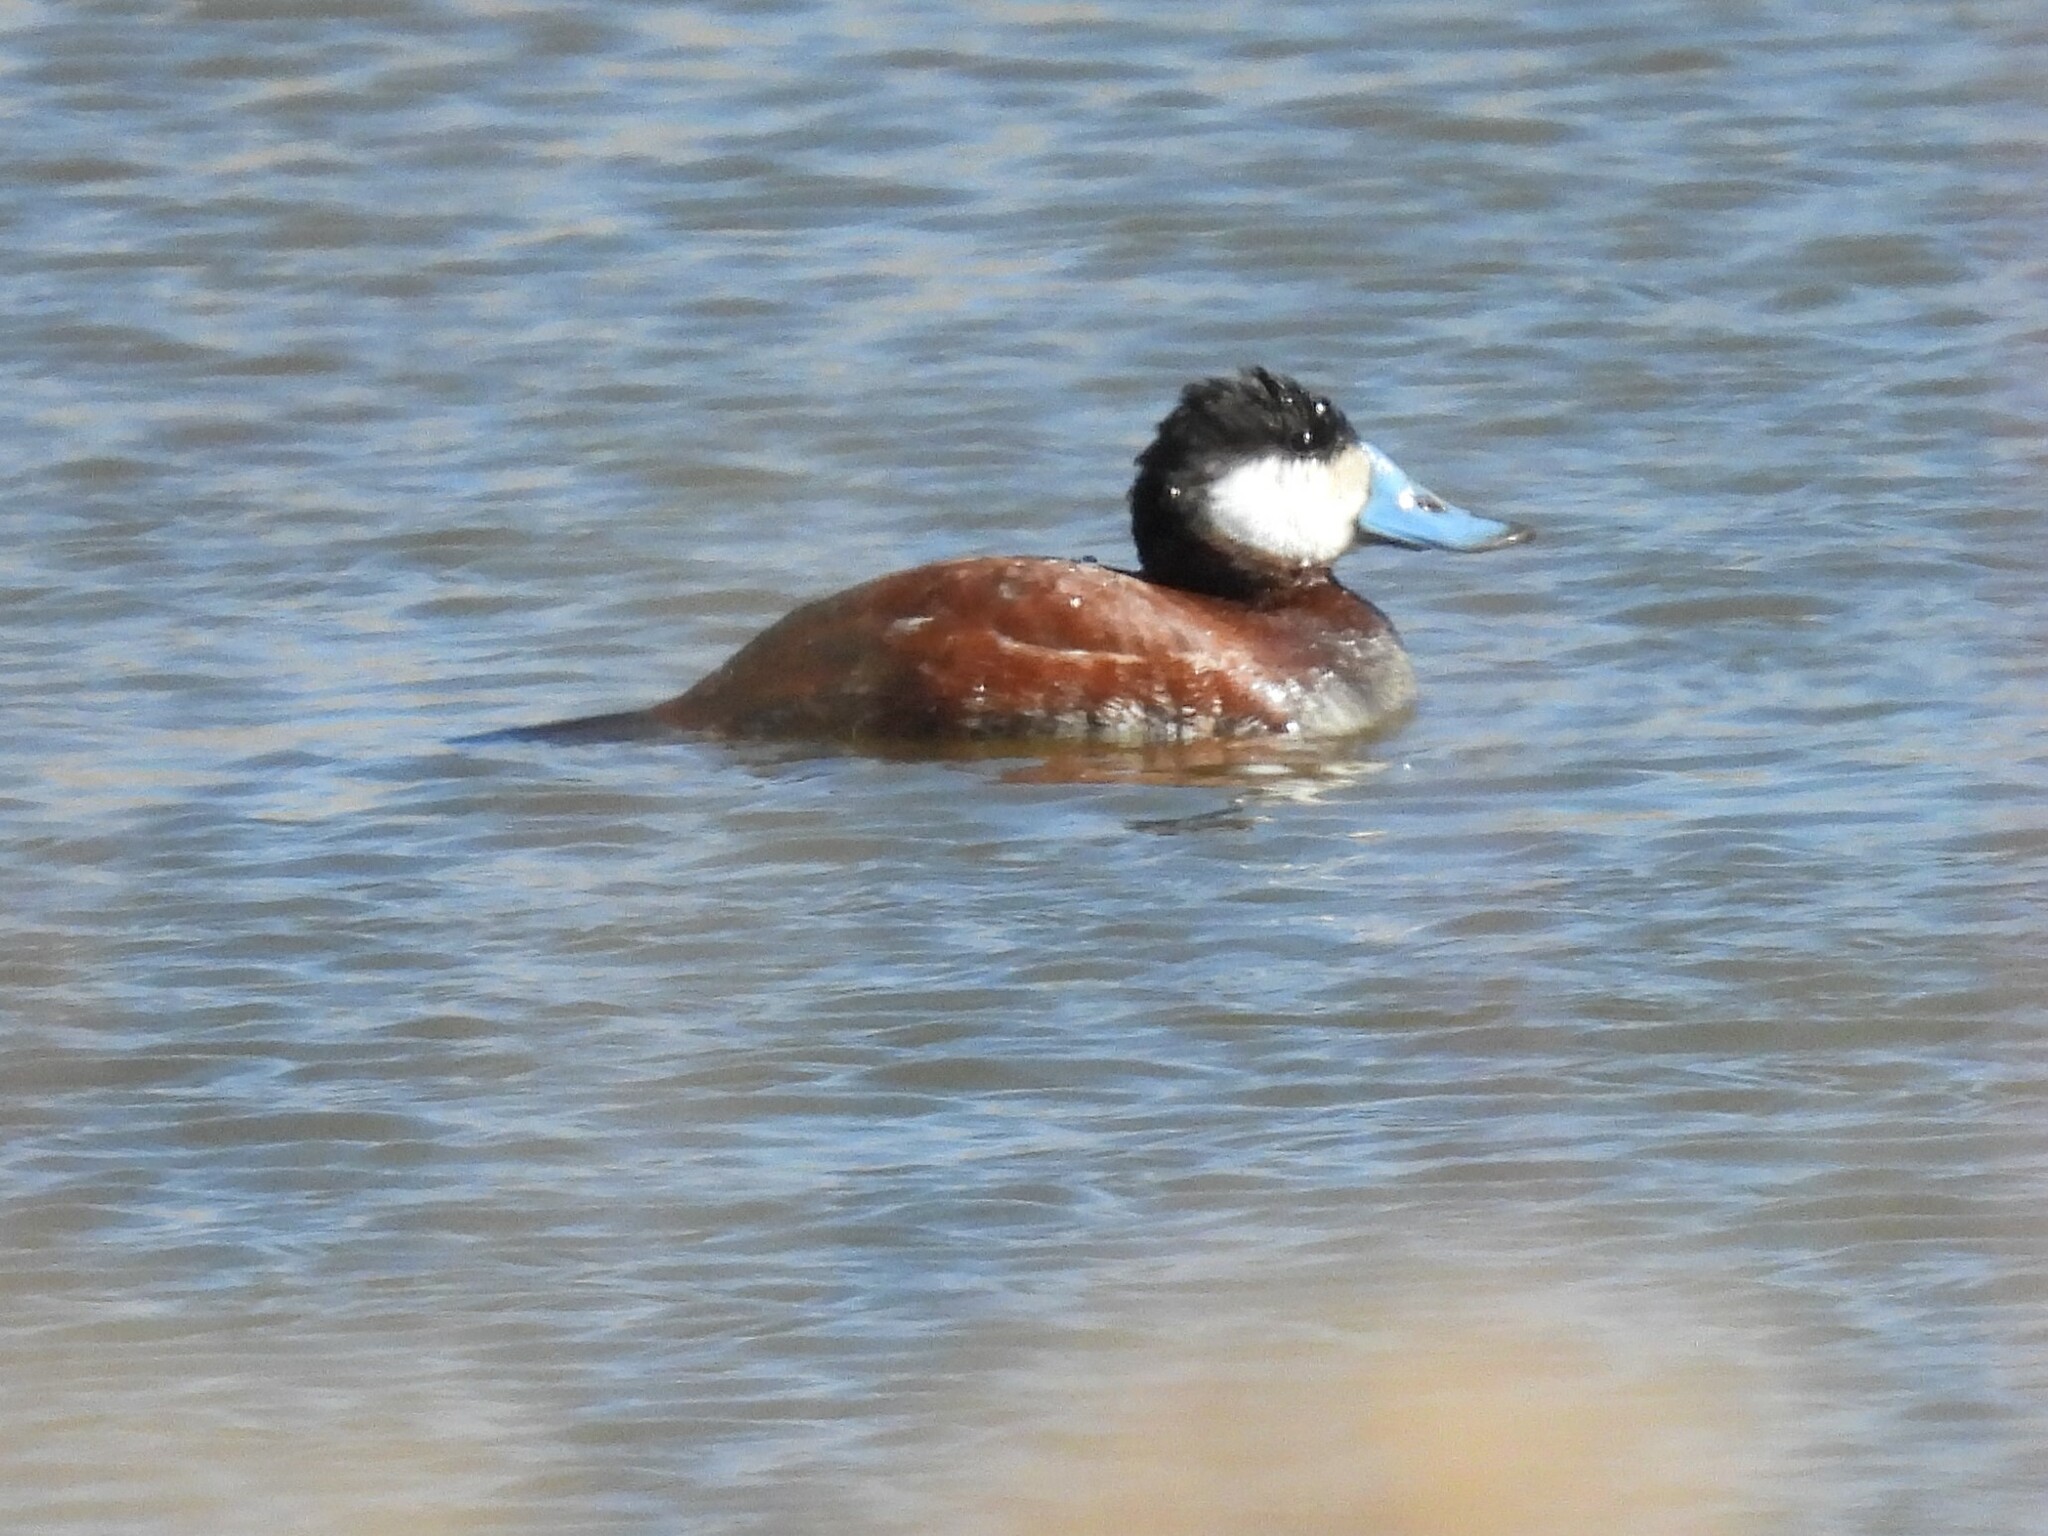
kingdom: Animalia
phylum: Chordata
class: Aves
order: Anseriformes
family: Anatidae
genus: Oxyura
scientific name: Oxyura jamaicensis
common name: Ruddy duck
